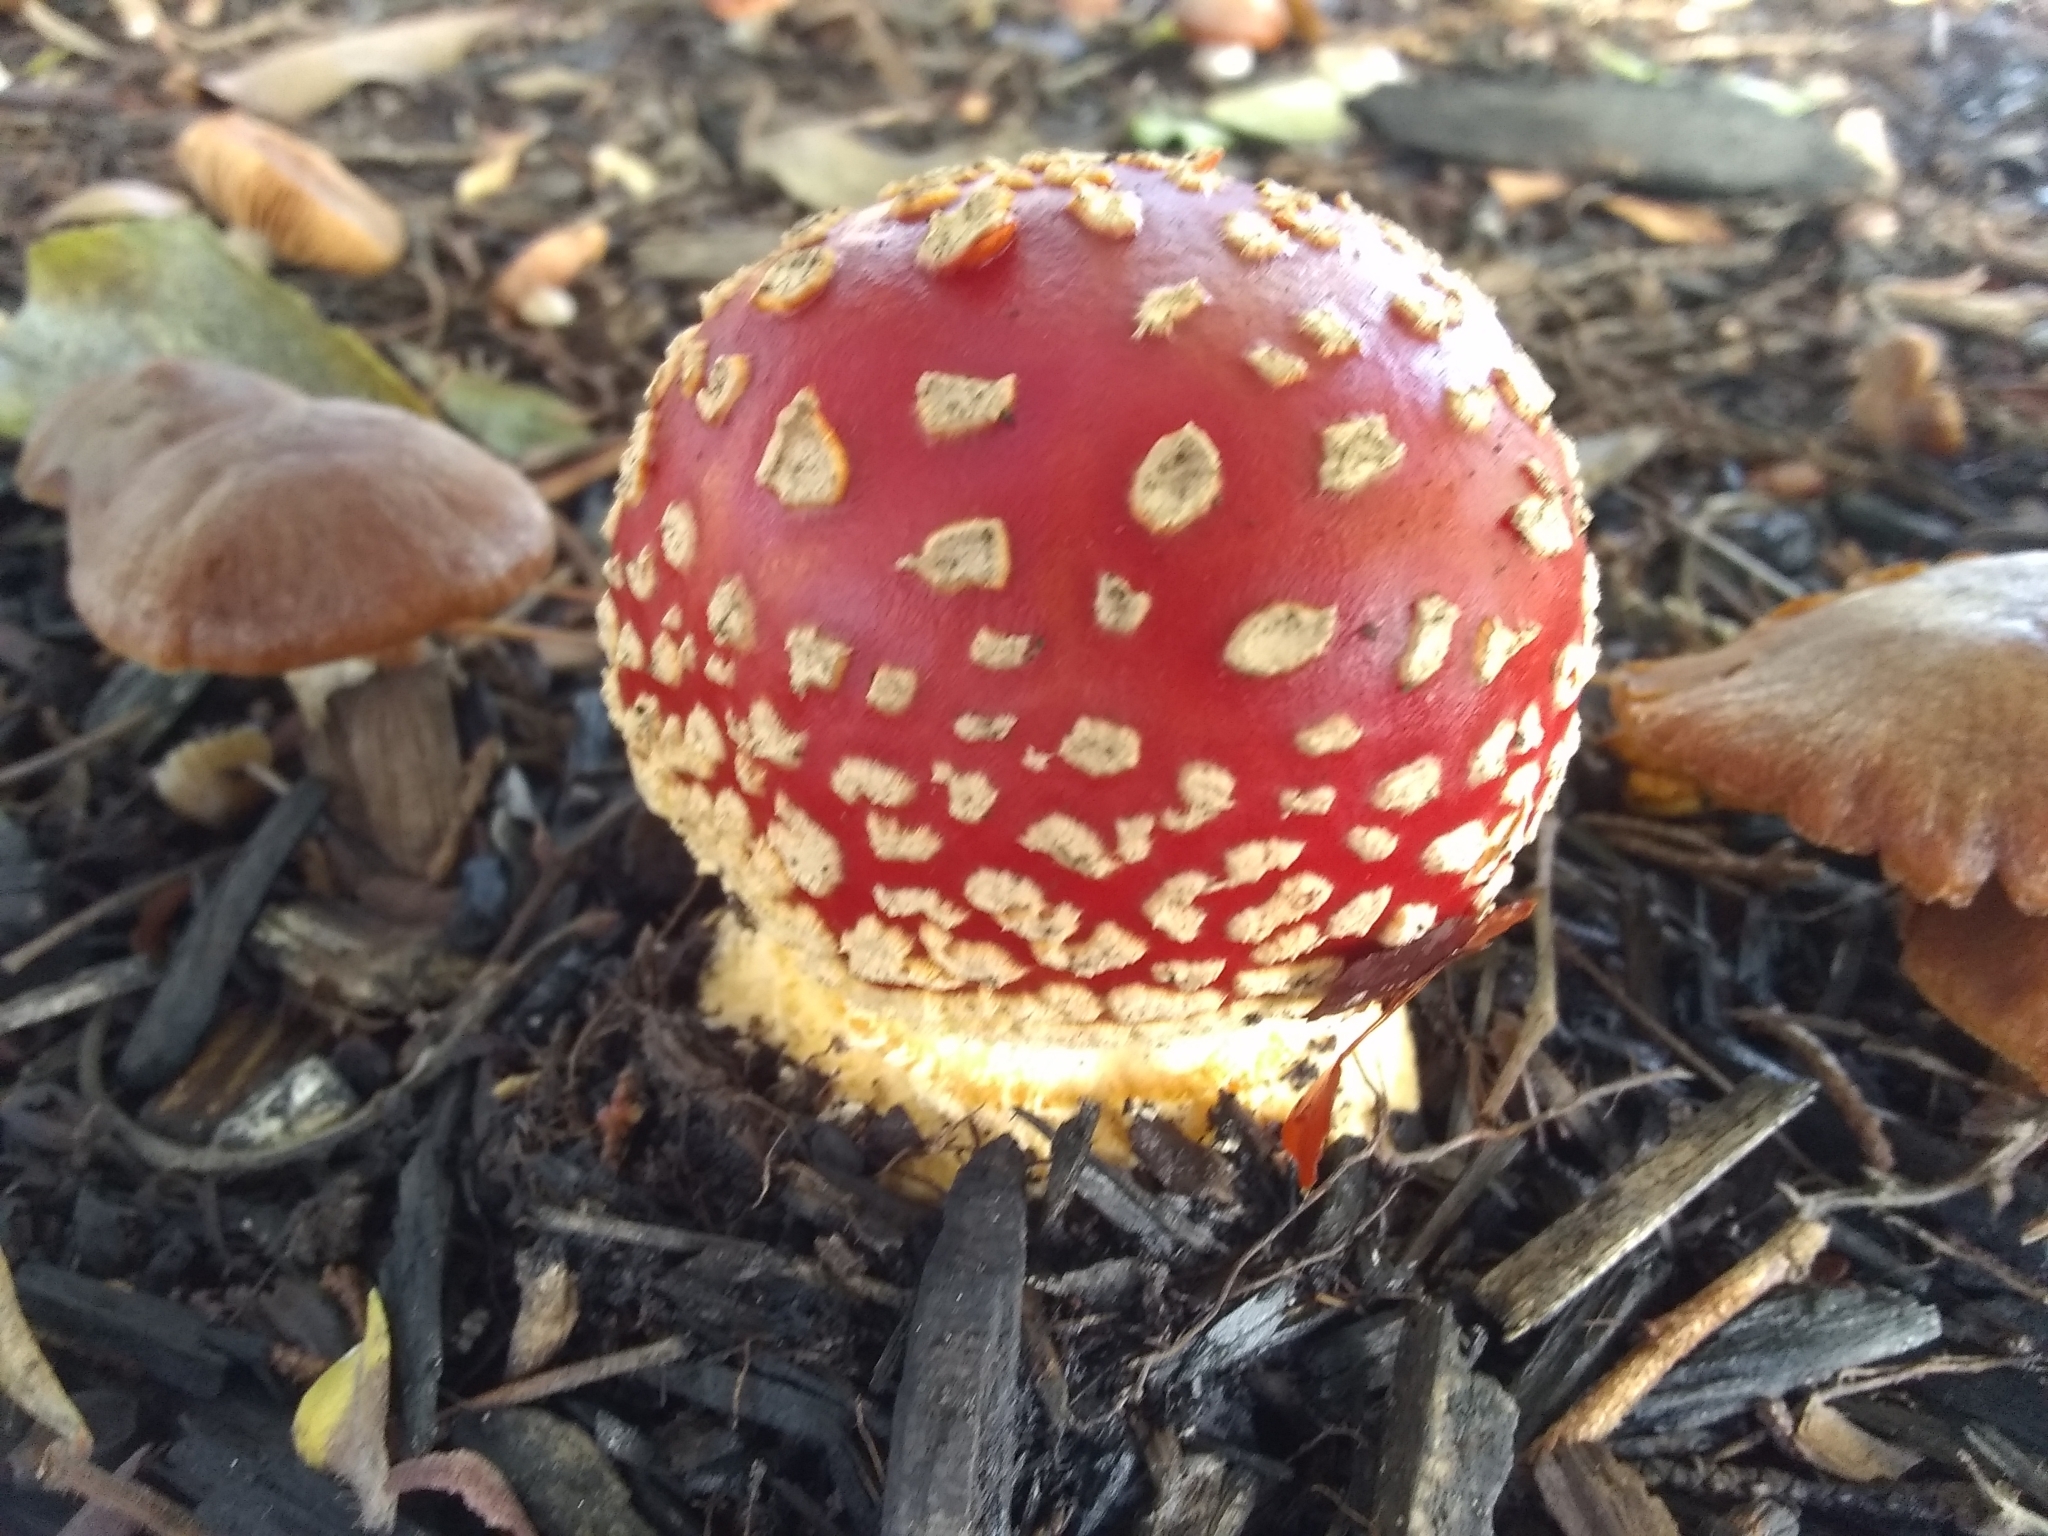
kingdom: Fungi
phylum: Basidiomycota
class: Agaricomycetes
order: Agaricales
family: Amanitaceae
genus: Amanita
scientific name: Amanita muscaria
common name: Fly agaric
